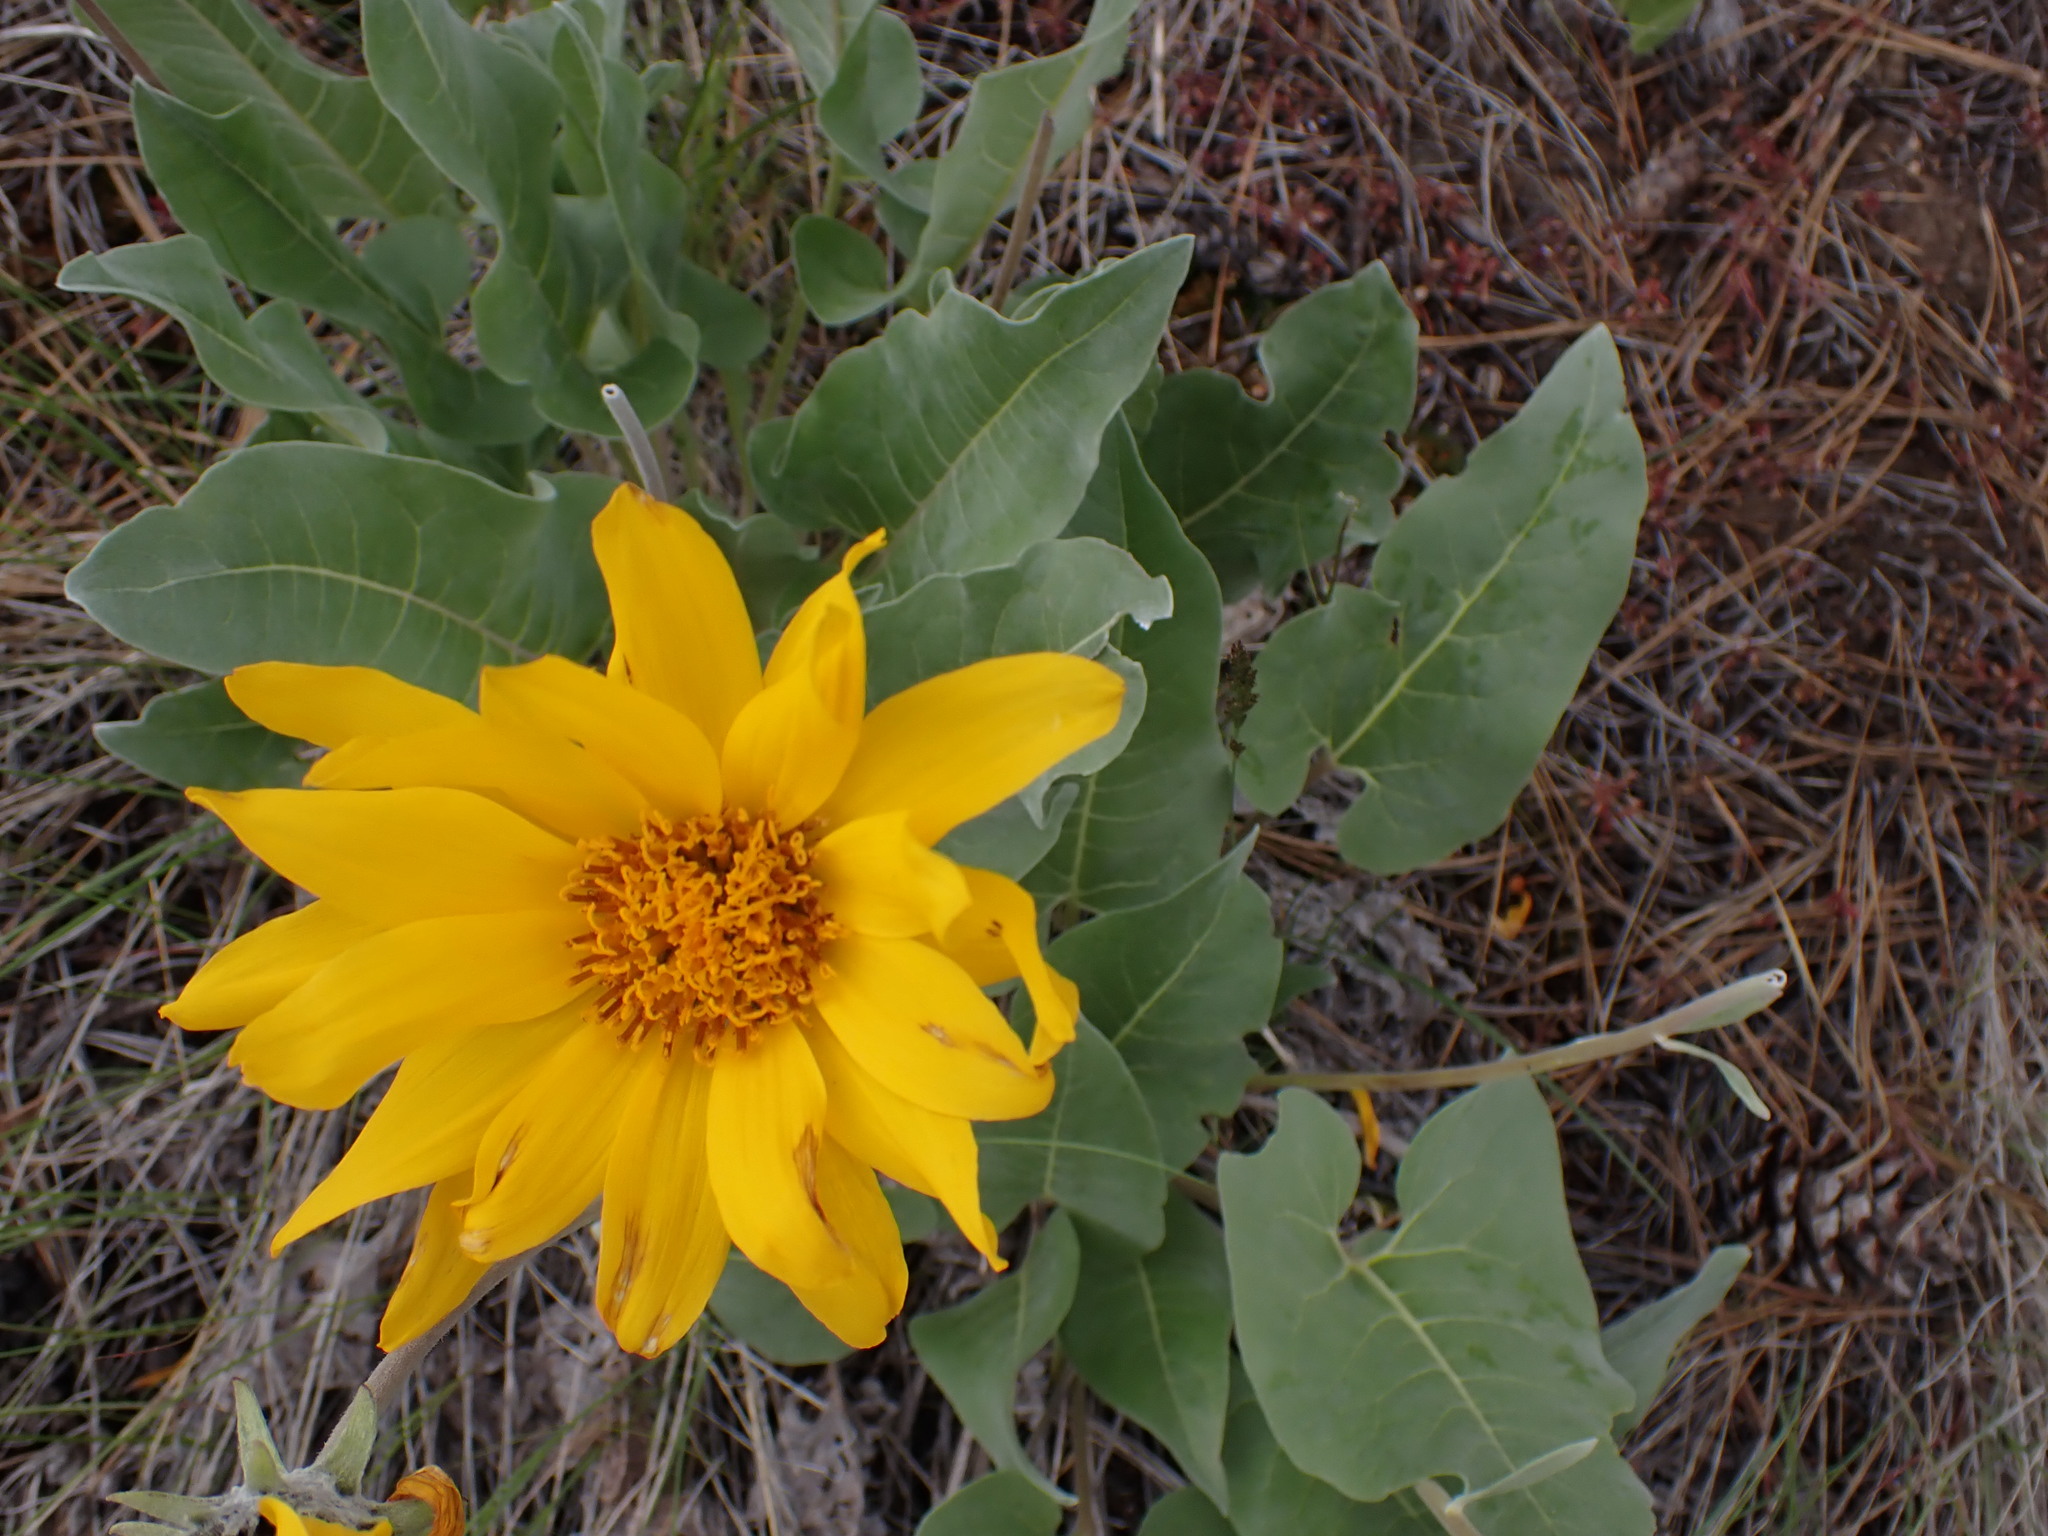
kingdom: Plantae
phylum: Tracheophyta
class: Magnoliopsida
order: Asterales
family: Asteraceae
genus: Wyethia
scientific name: Wyethia sagittata
